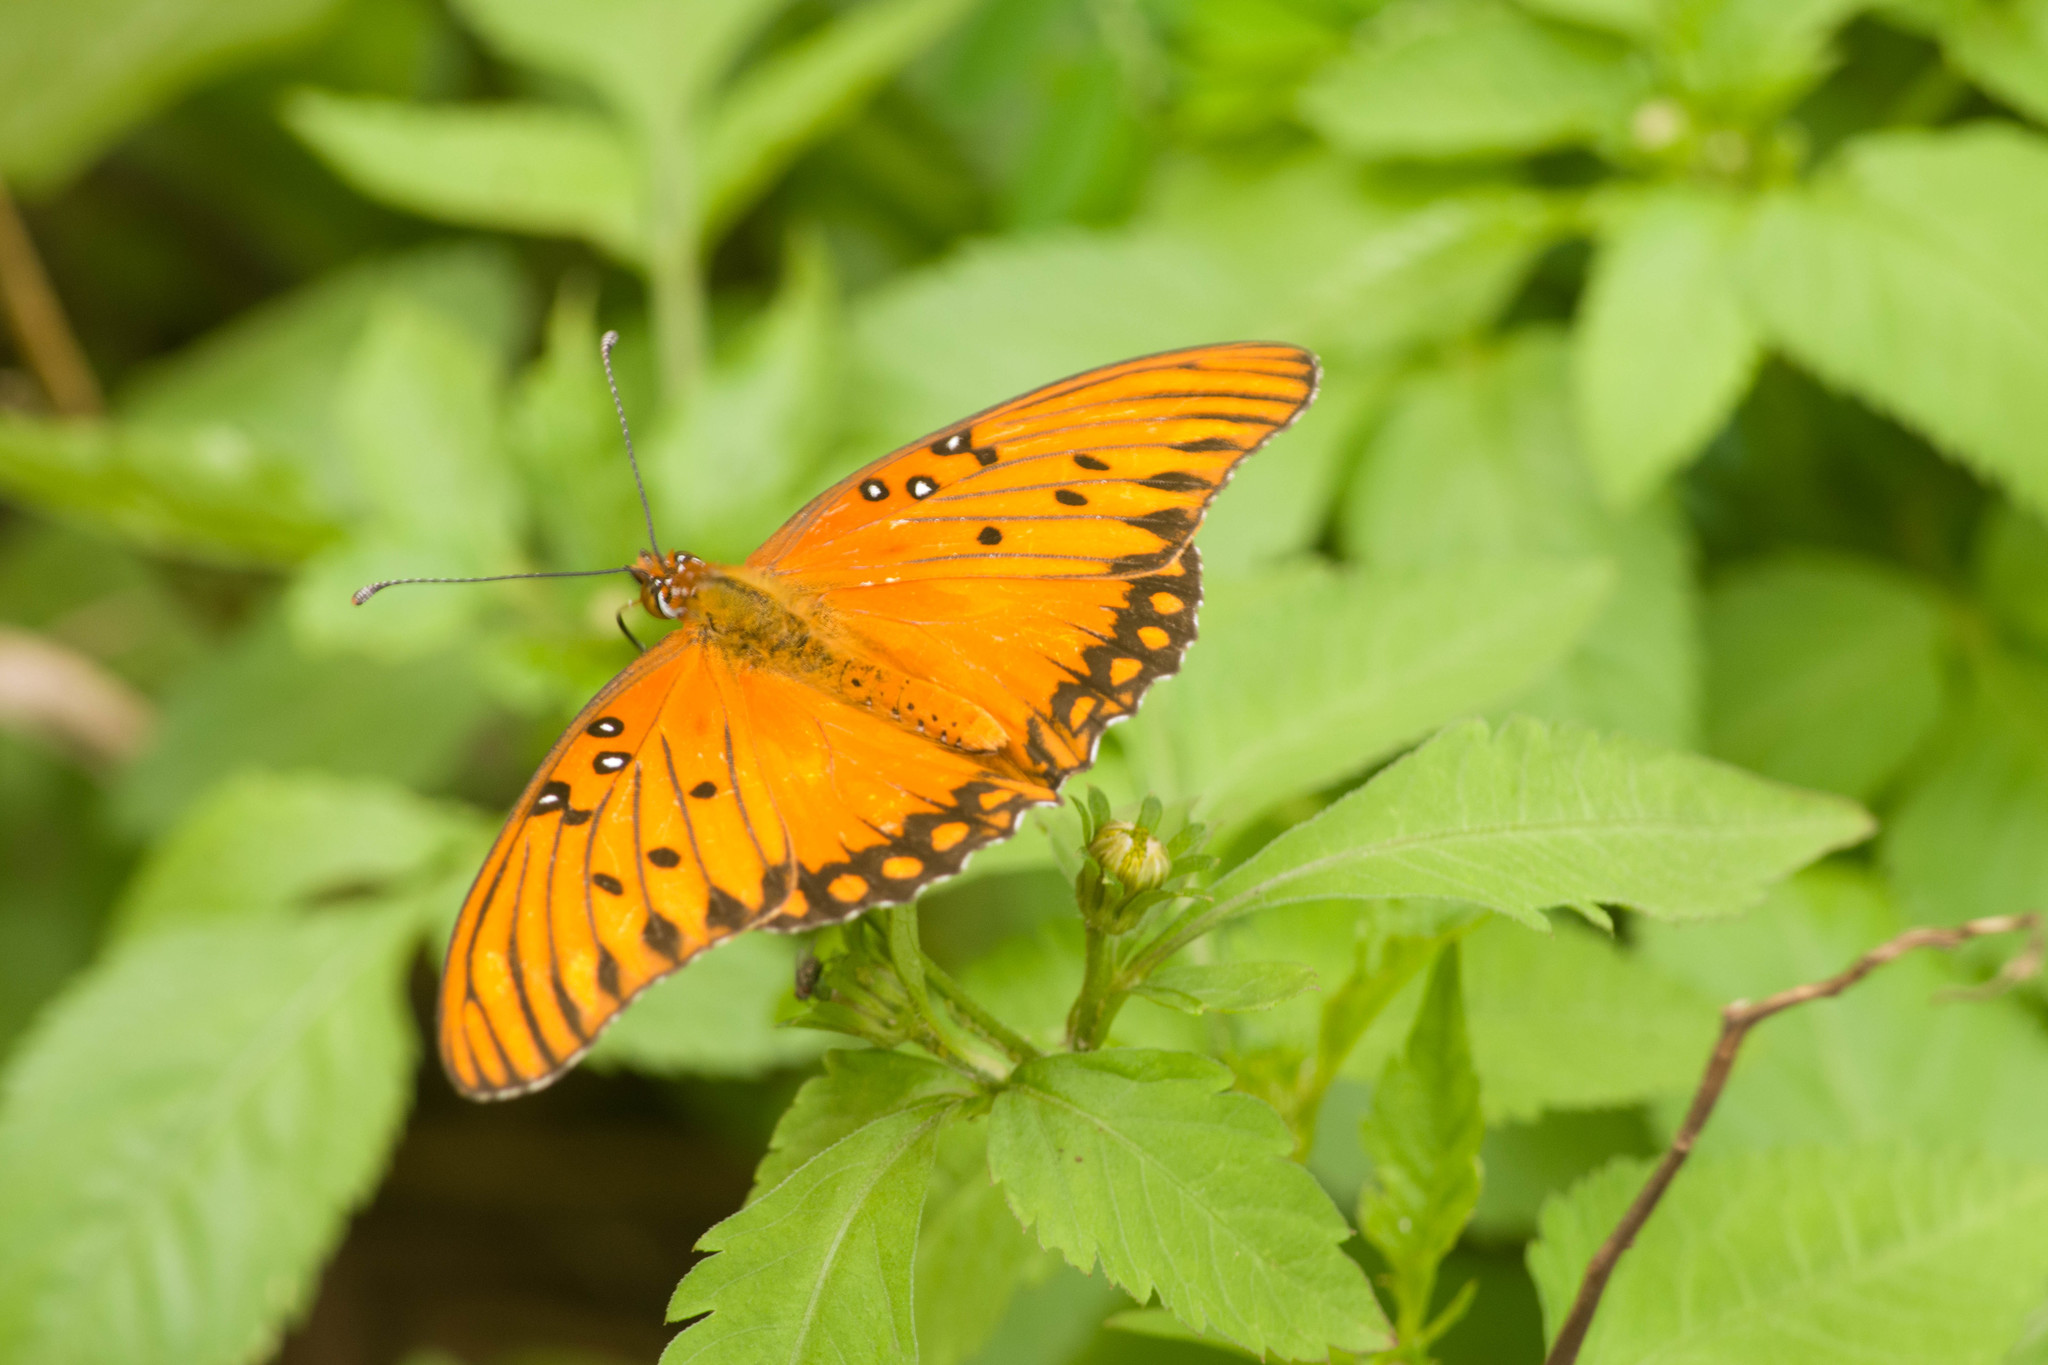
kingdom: Animalia
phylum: Arthropoda
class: Insecta
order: Lepidoptera
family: Nymphalidae
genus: Dione
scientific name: Dione vanillae
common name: Gulf fritillary
